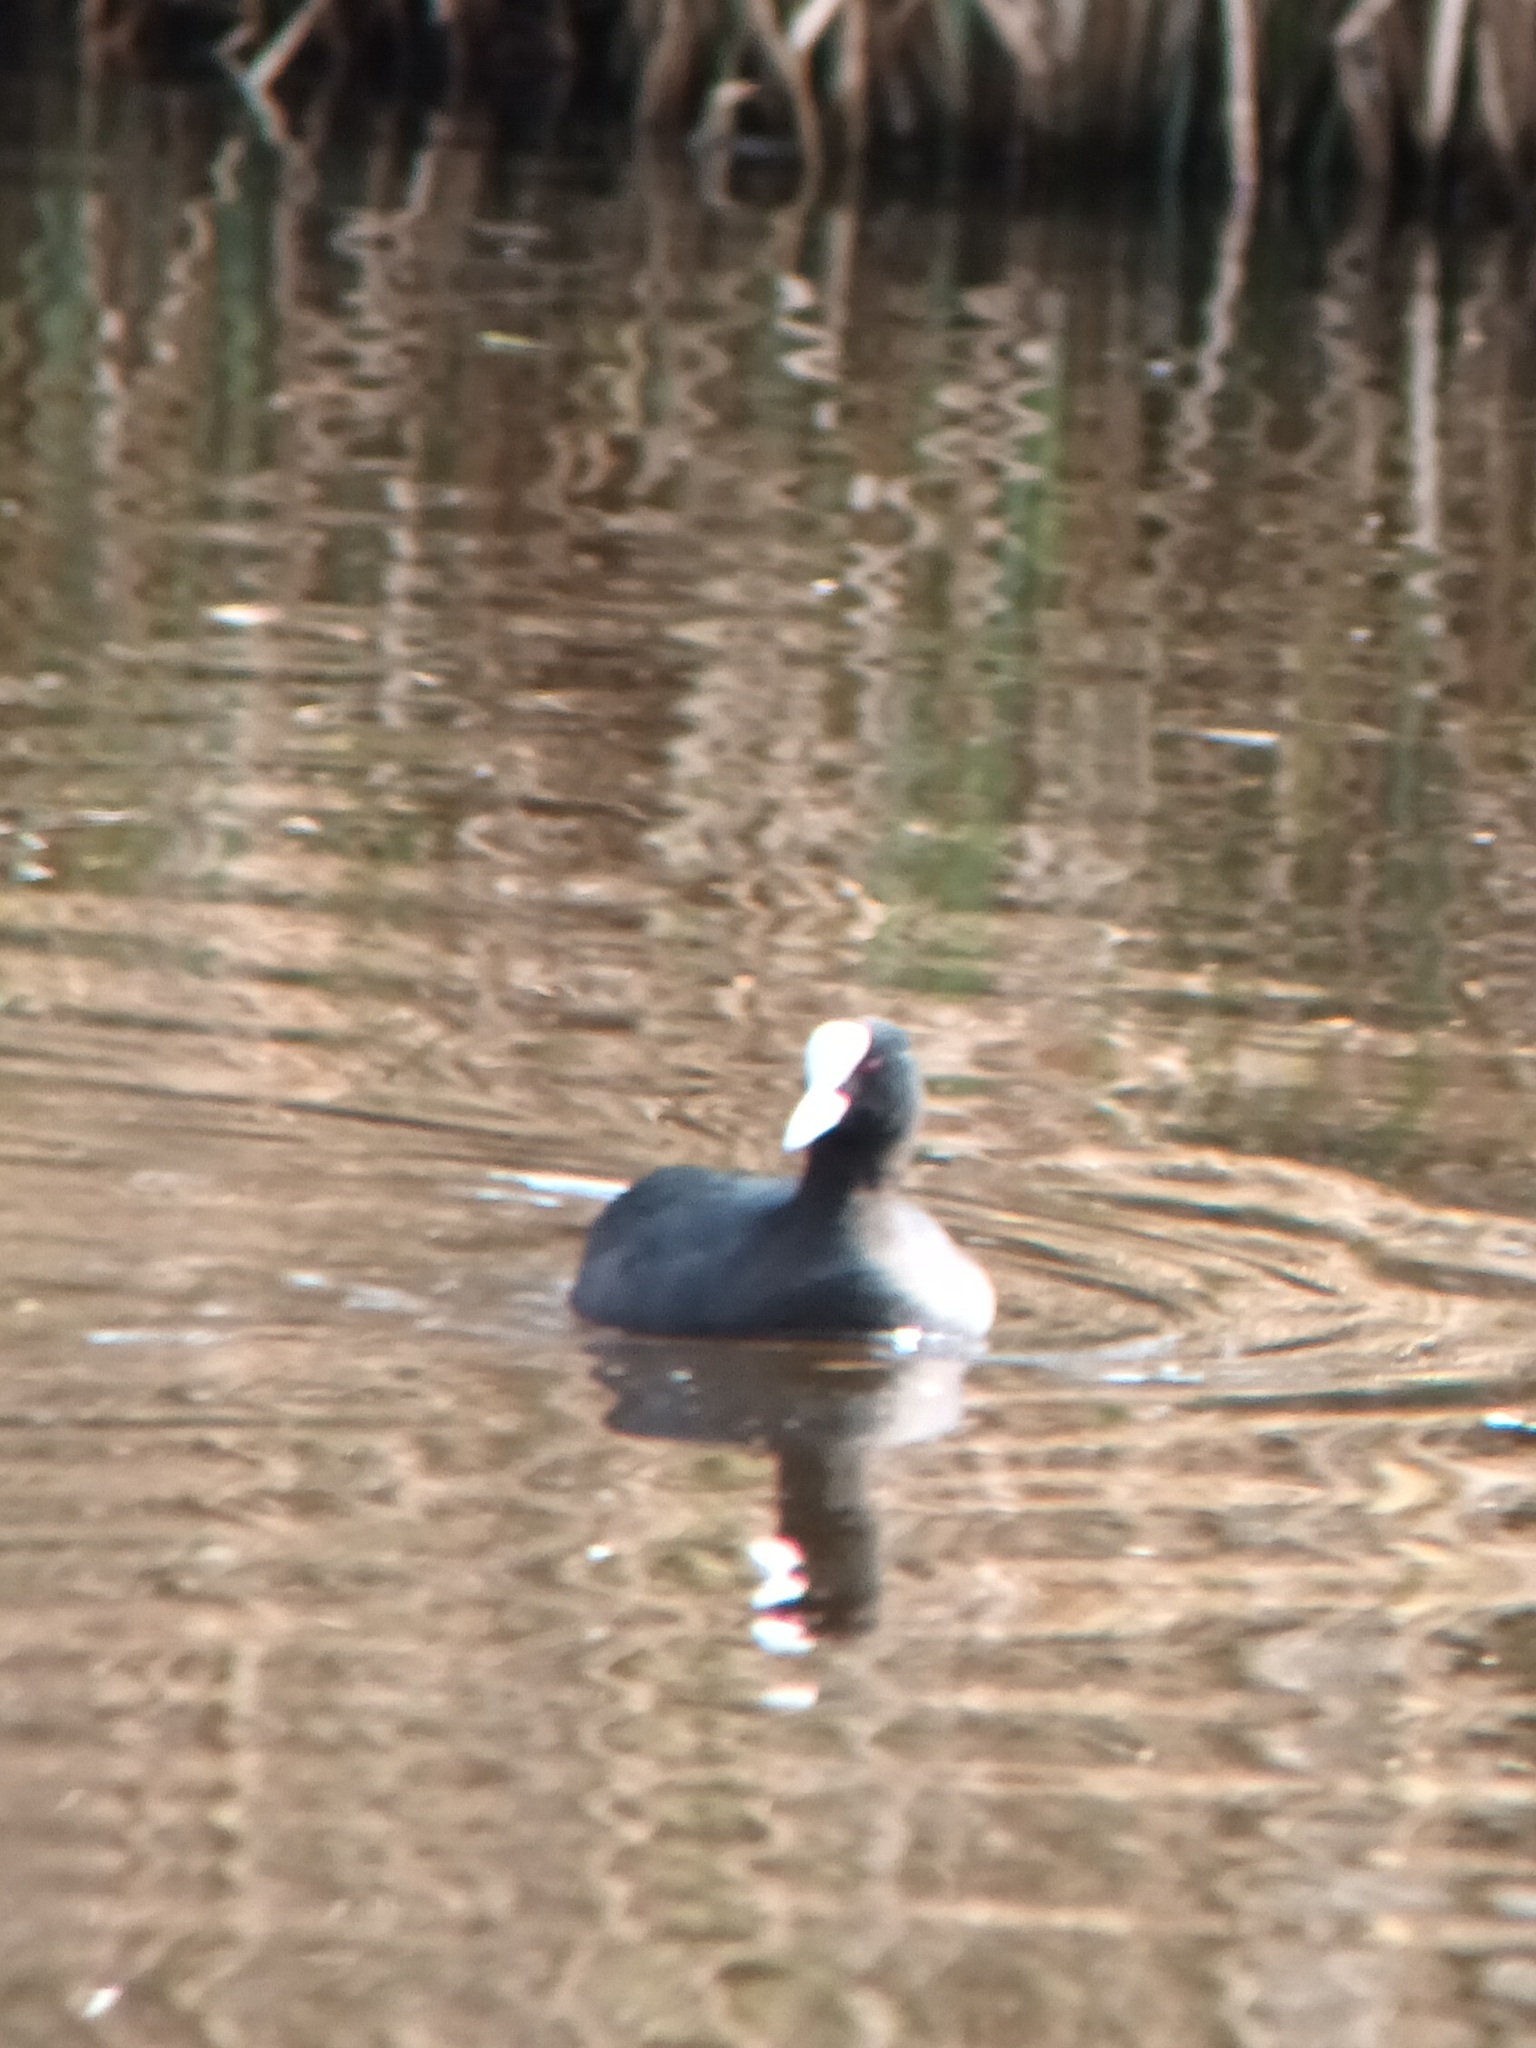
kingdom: Animalia
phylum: Chordata
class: Aves
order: Gruiformes
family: Rallidae
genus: Fulica
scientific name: Fulica atra
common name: Eurasian coot
